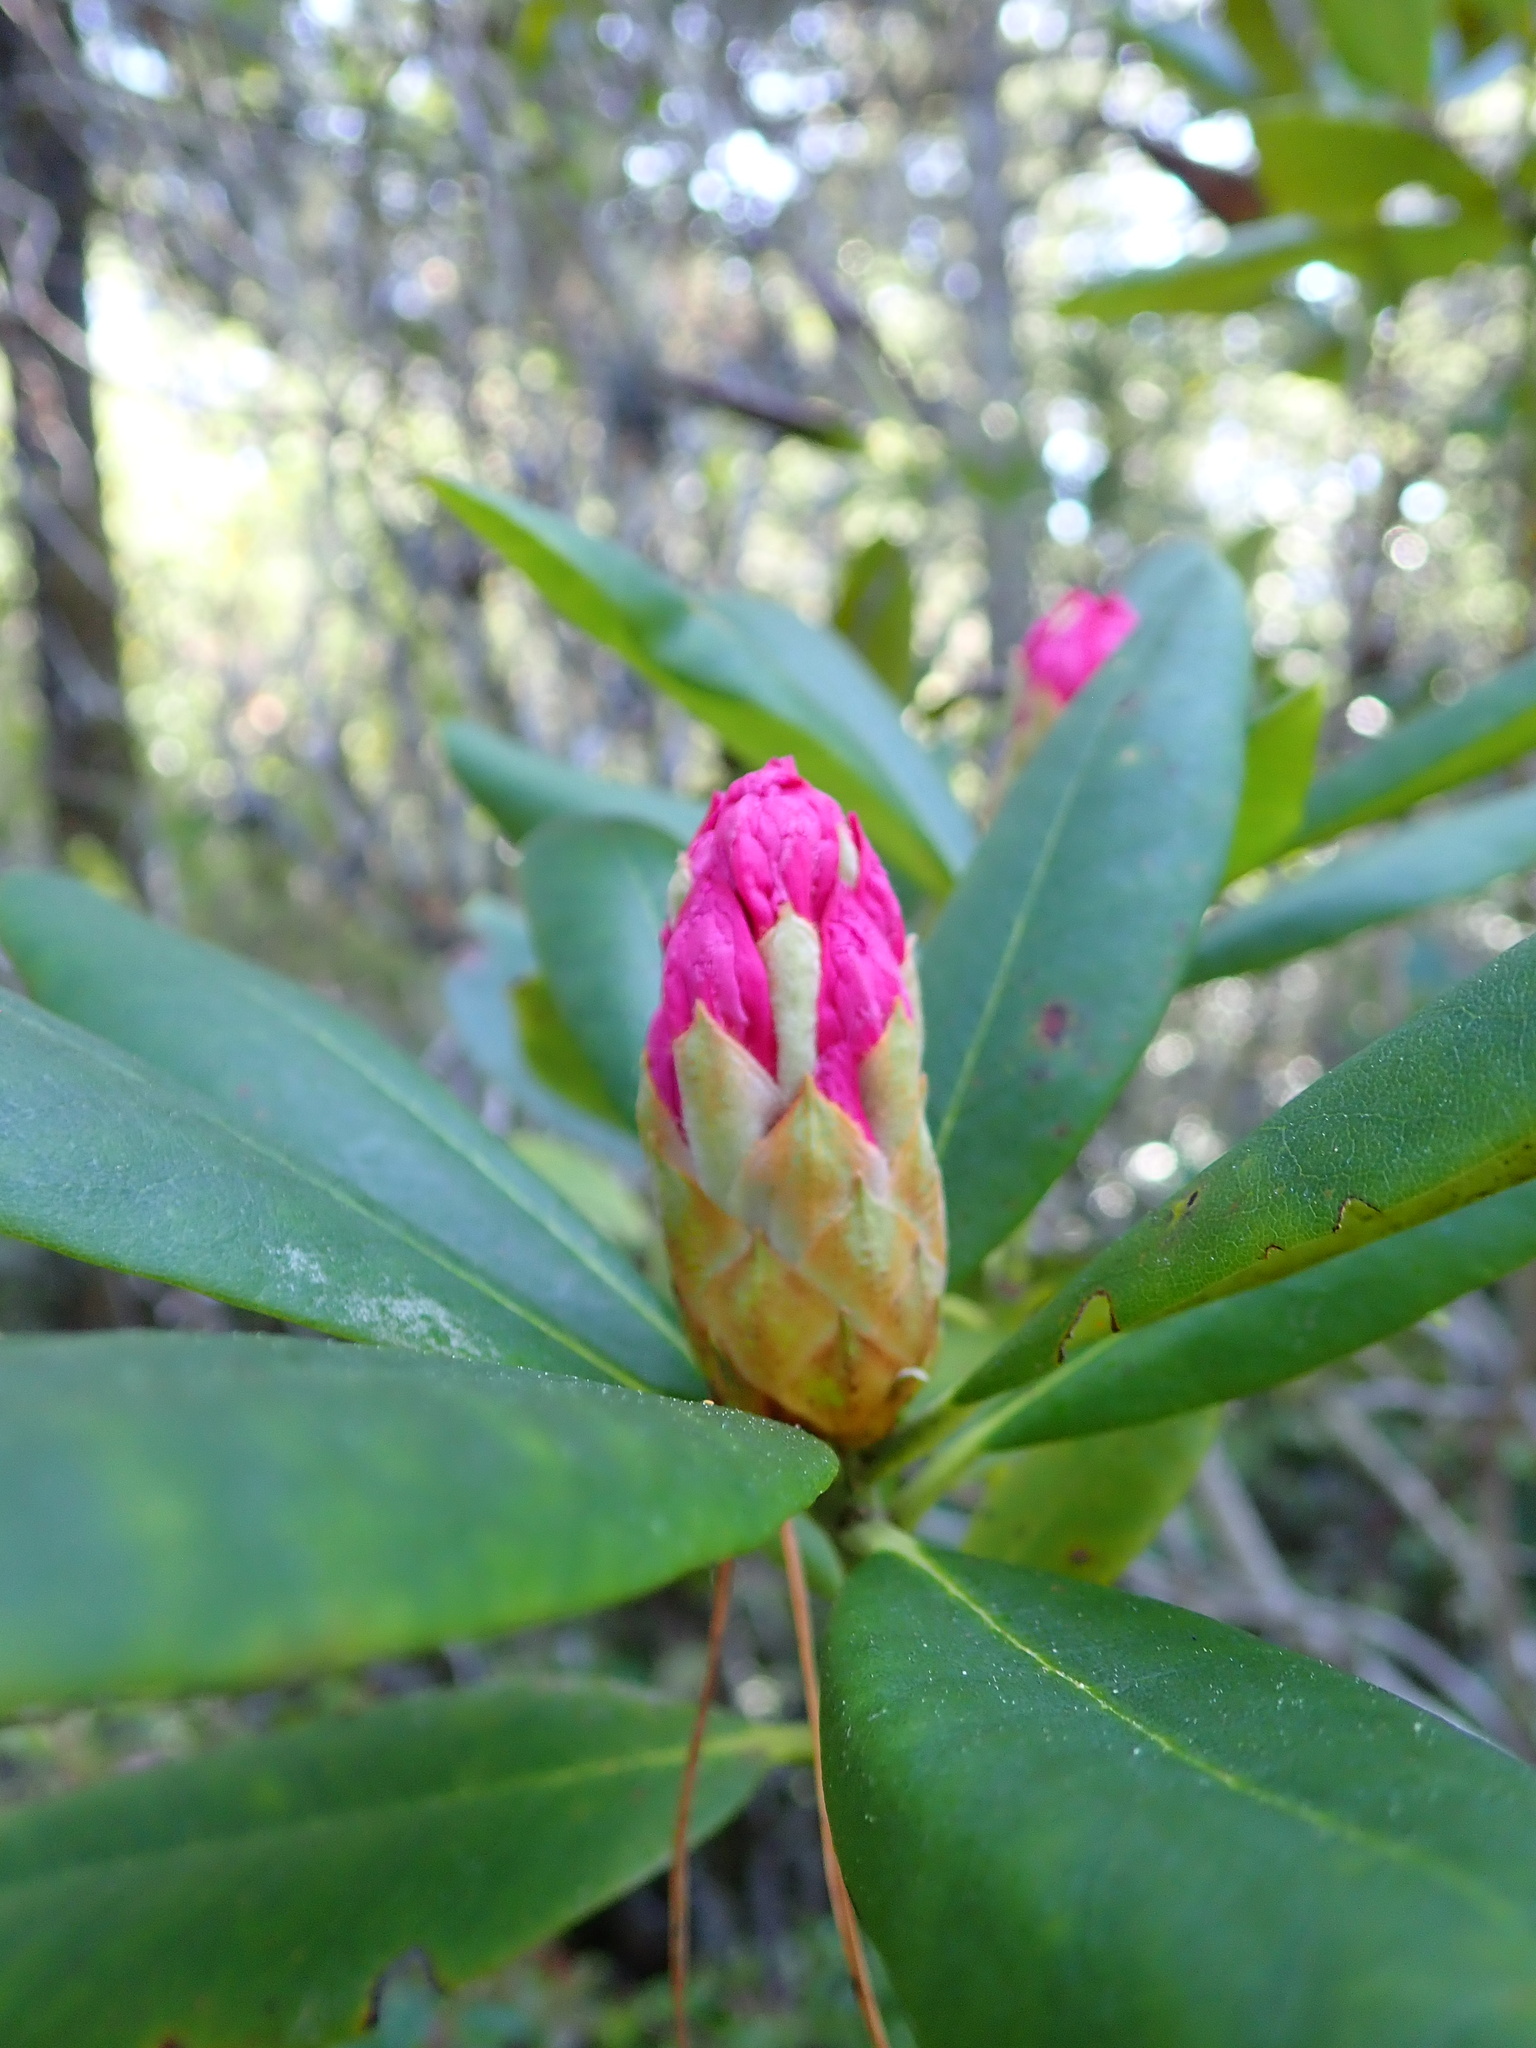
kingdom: Plantae
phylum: Tracheophyta
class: Magnoliopsida
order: Ericales
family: Ericaceae
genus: Rhododendron
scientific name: Rhododendron macrophyllum
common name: California rose bay
